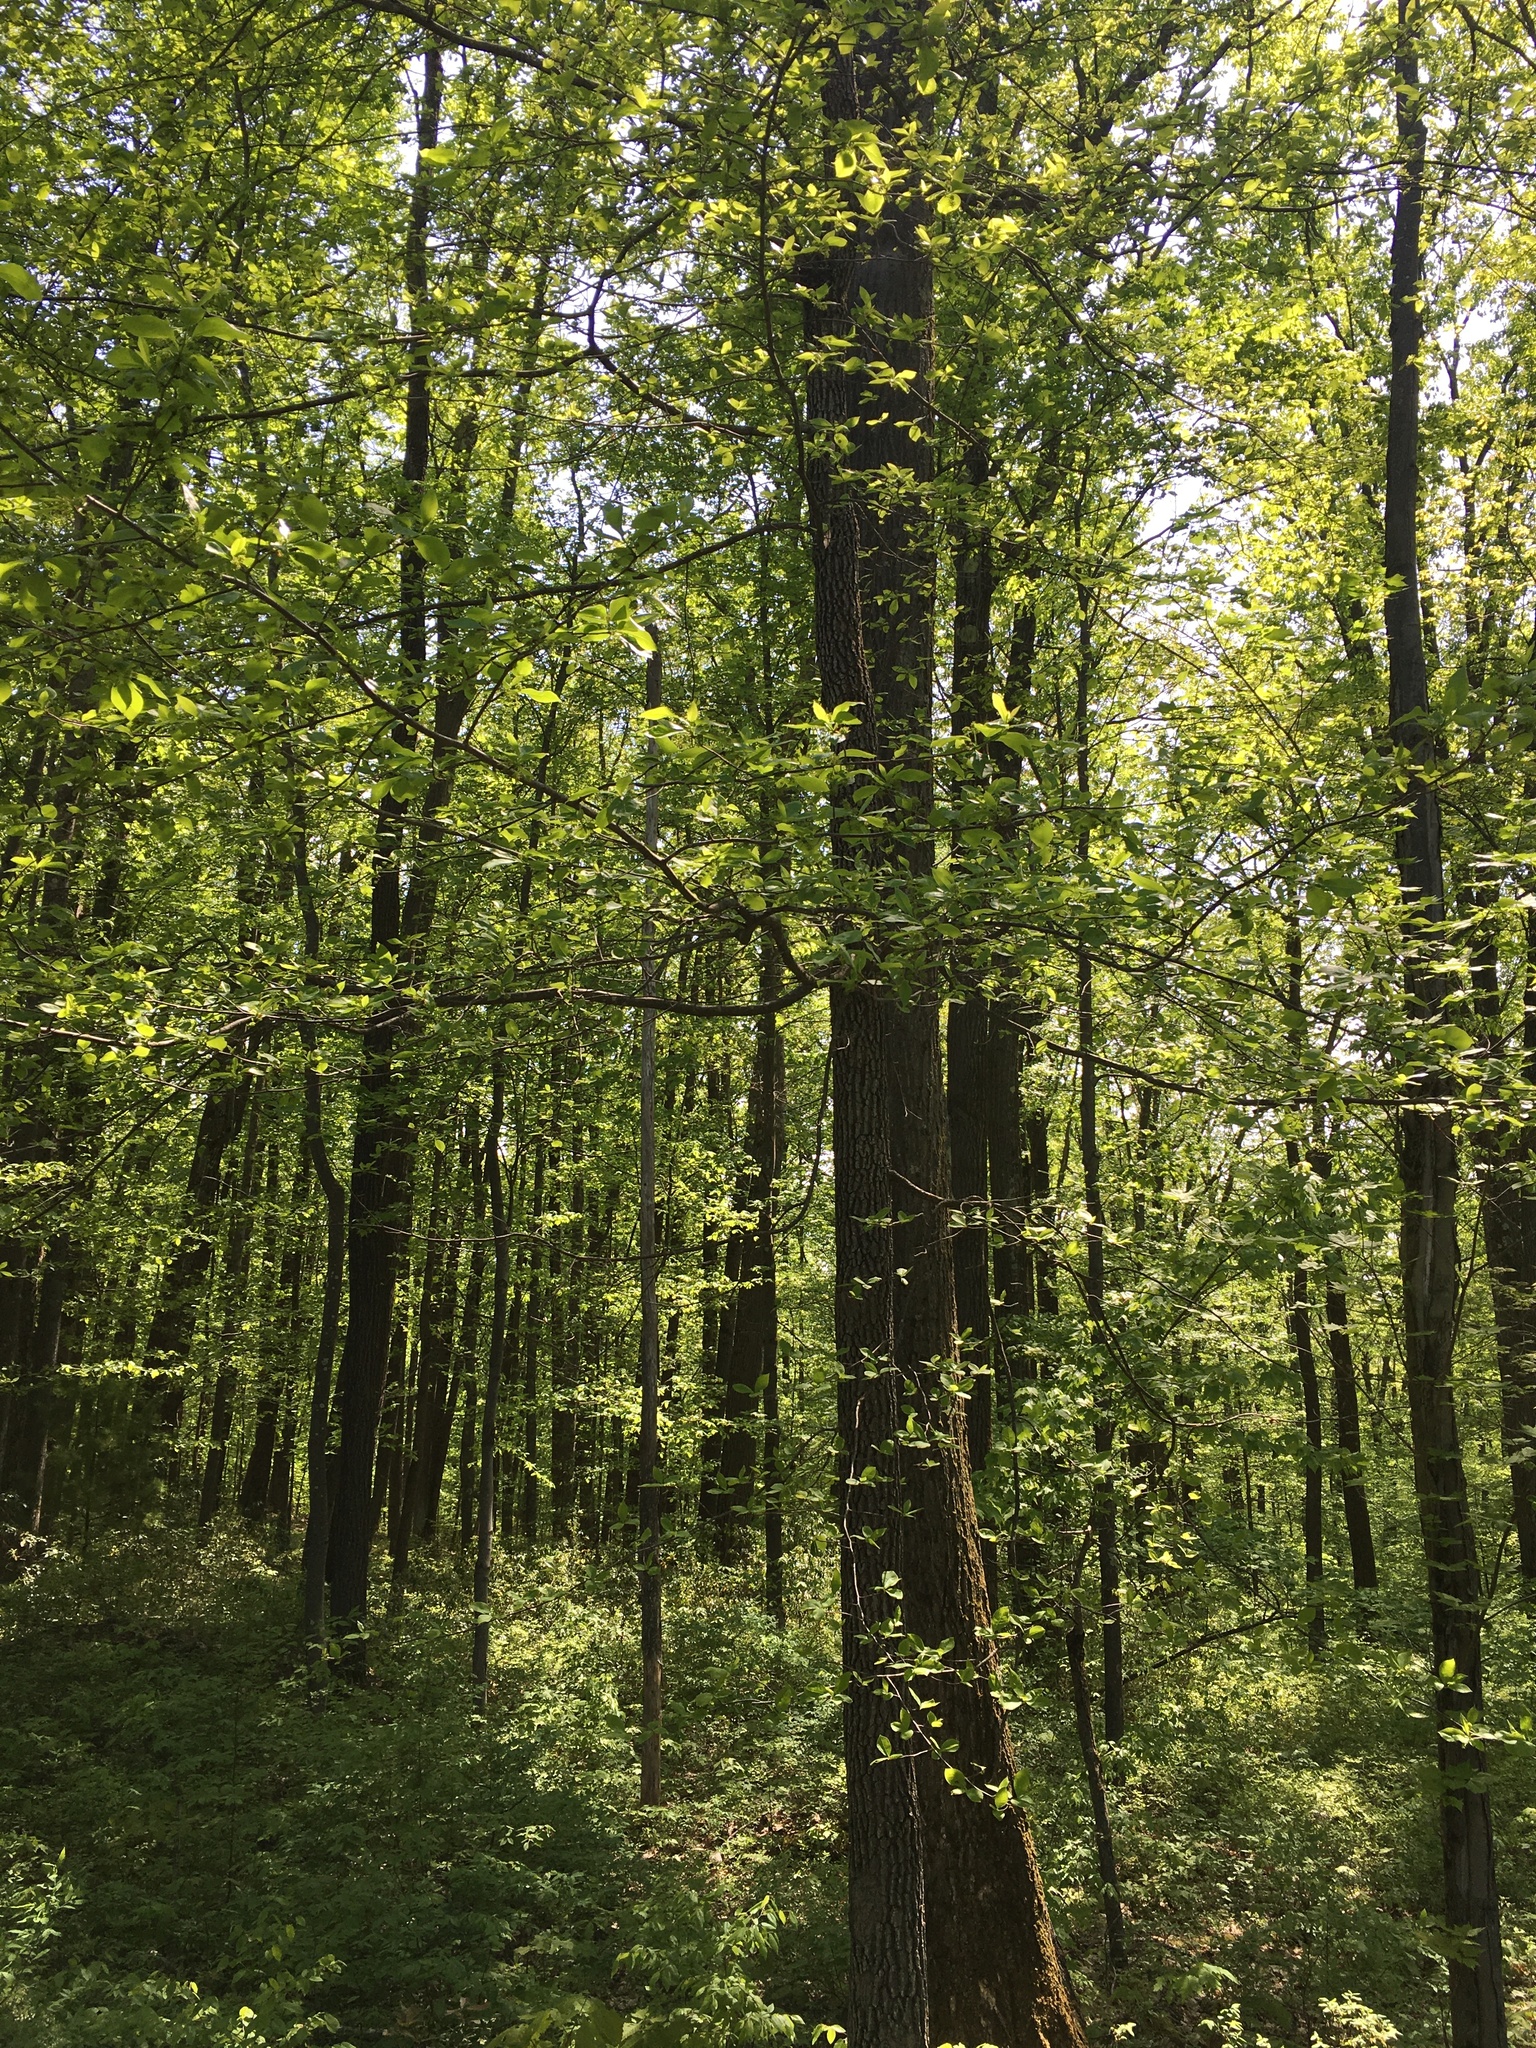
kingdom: Plantae
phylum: Tracheophyta
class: Magnoliopsida
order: Cornales
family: Nyssaceae
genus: Nyssa
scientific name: Nyssa sylvatica
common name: Black tupelo
